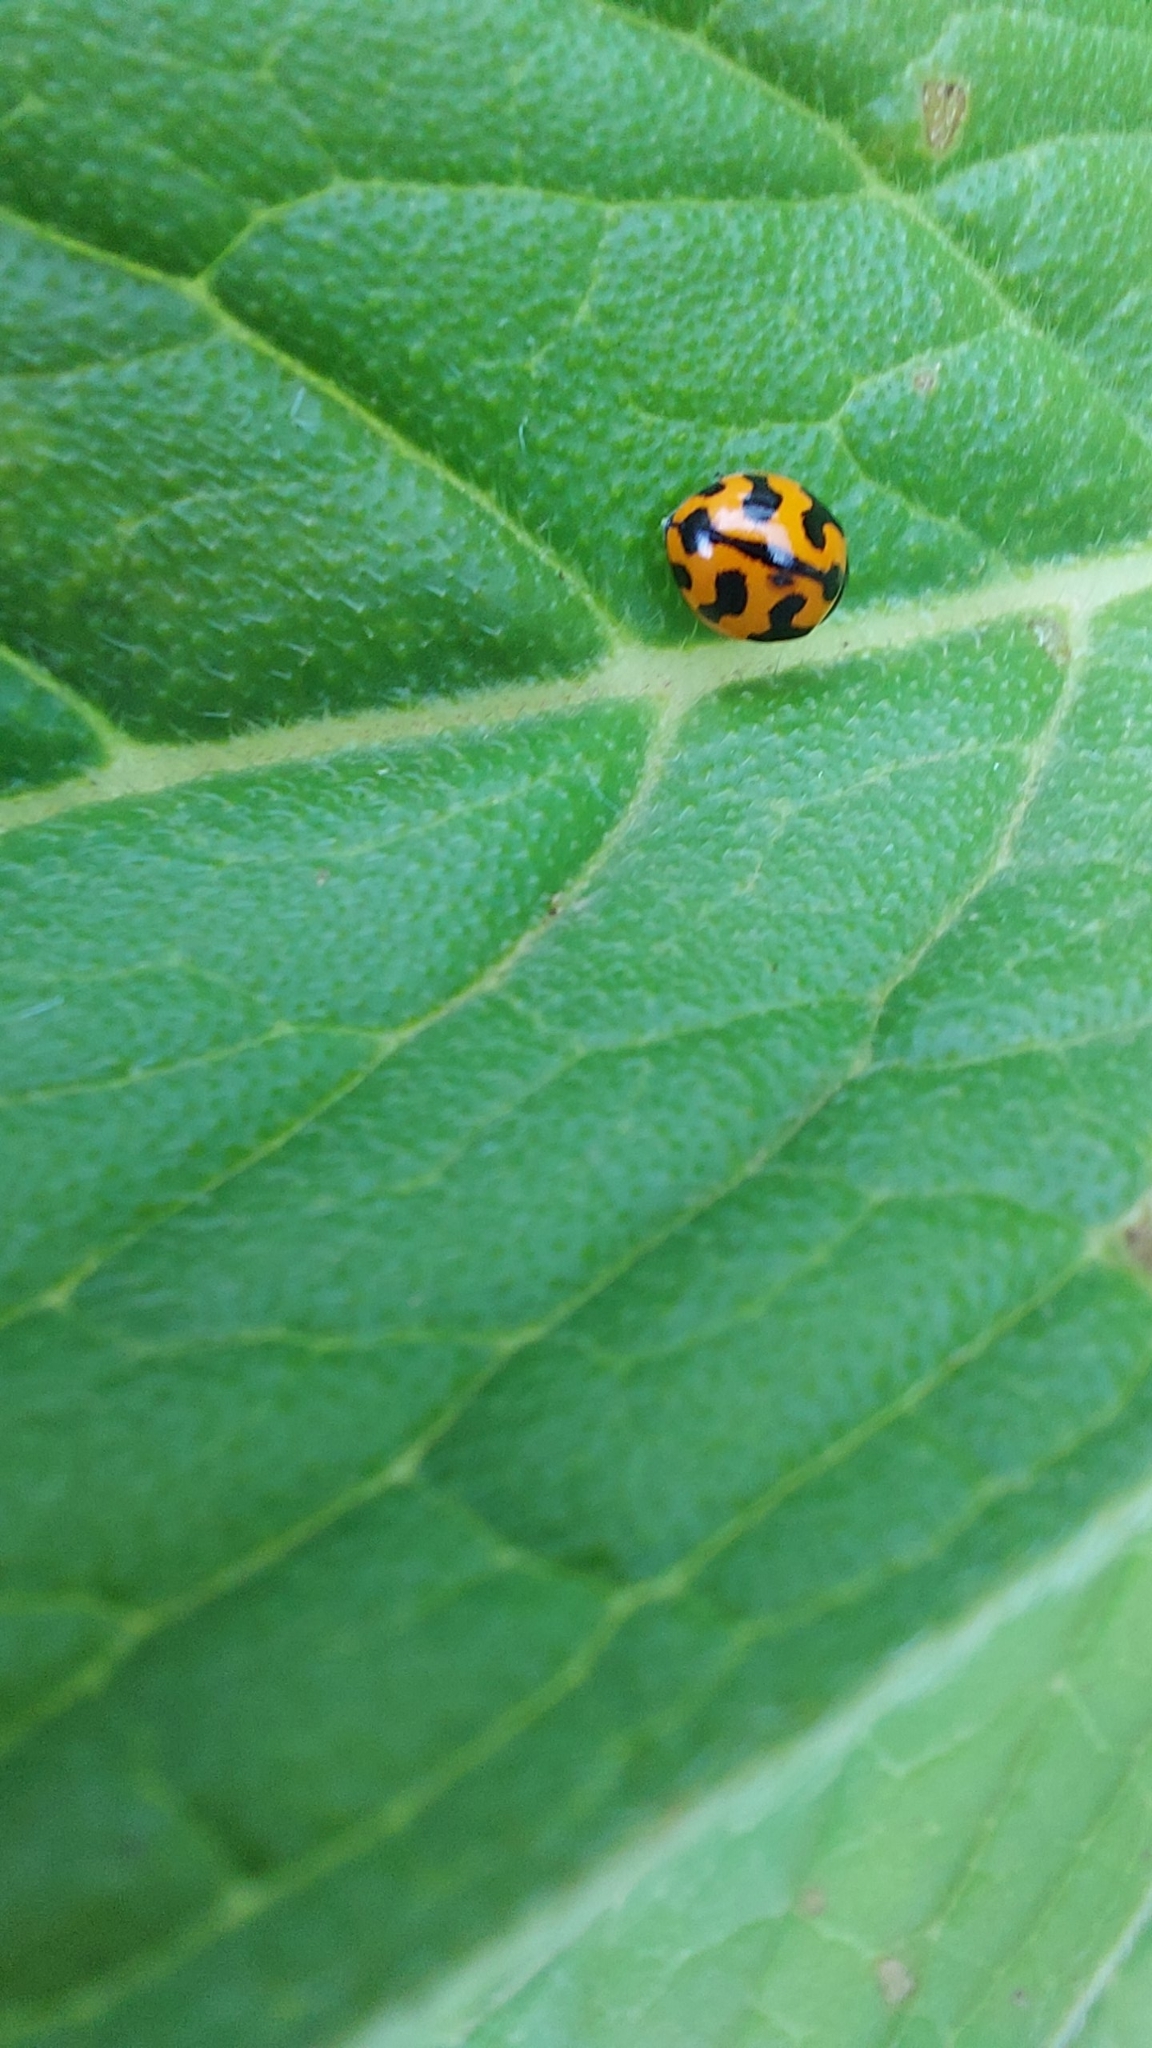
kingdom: Animalia
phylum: Arthropoda
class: Insecta
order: Coleoptera
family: Coccinellidae
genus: Coccinella
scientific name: Coccinella transversalis
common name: Transverse lady beetle
